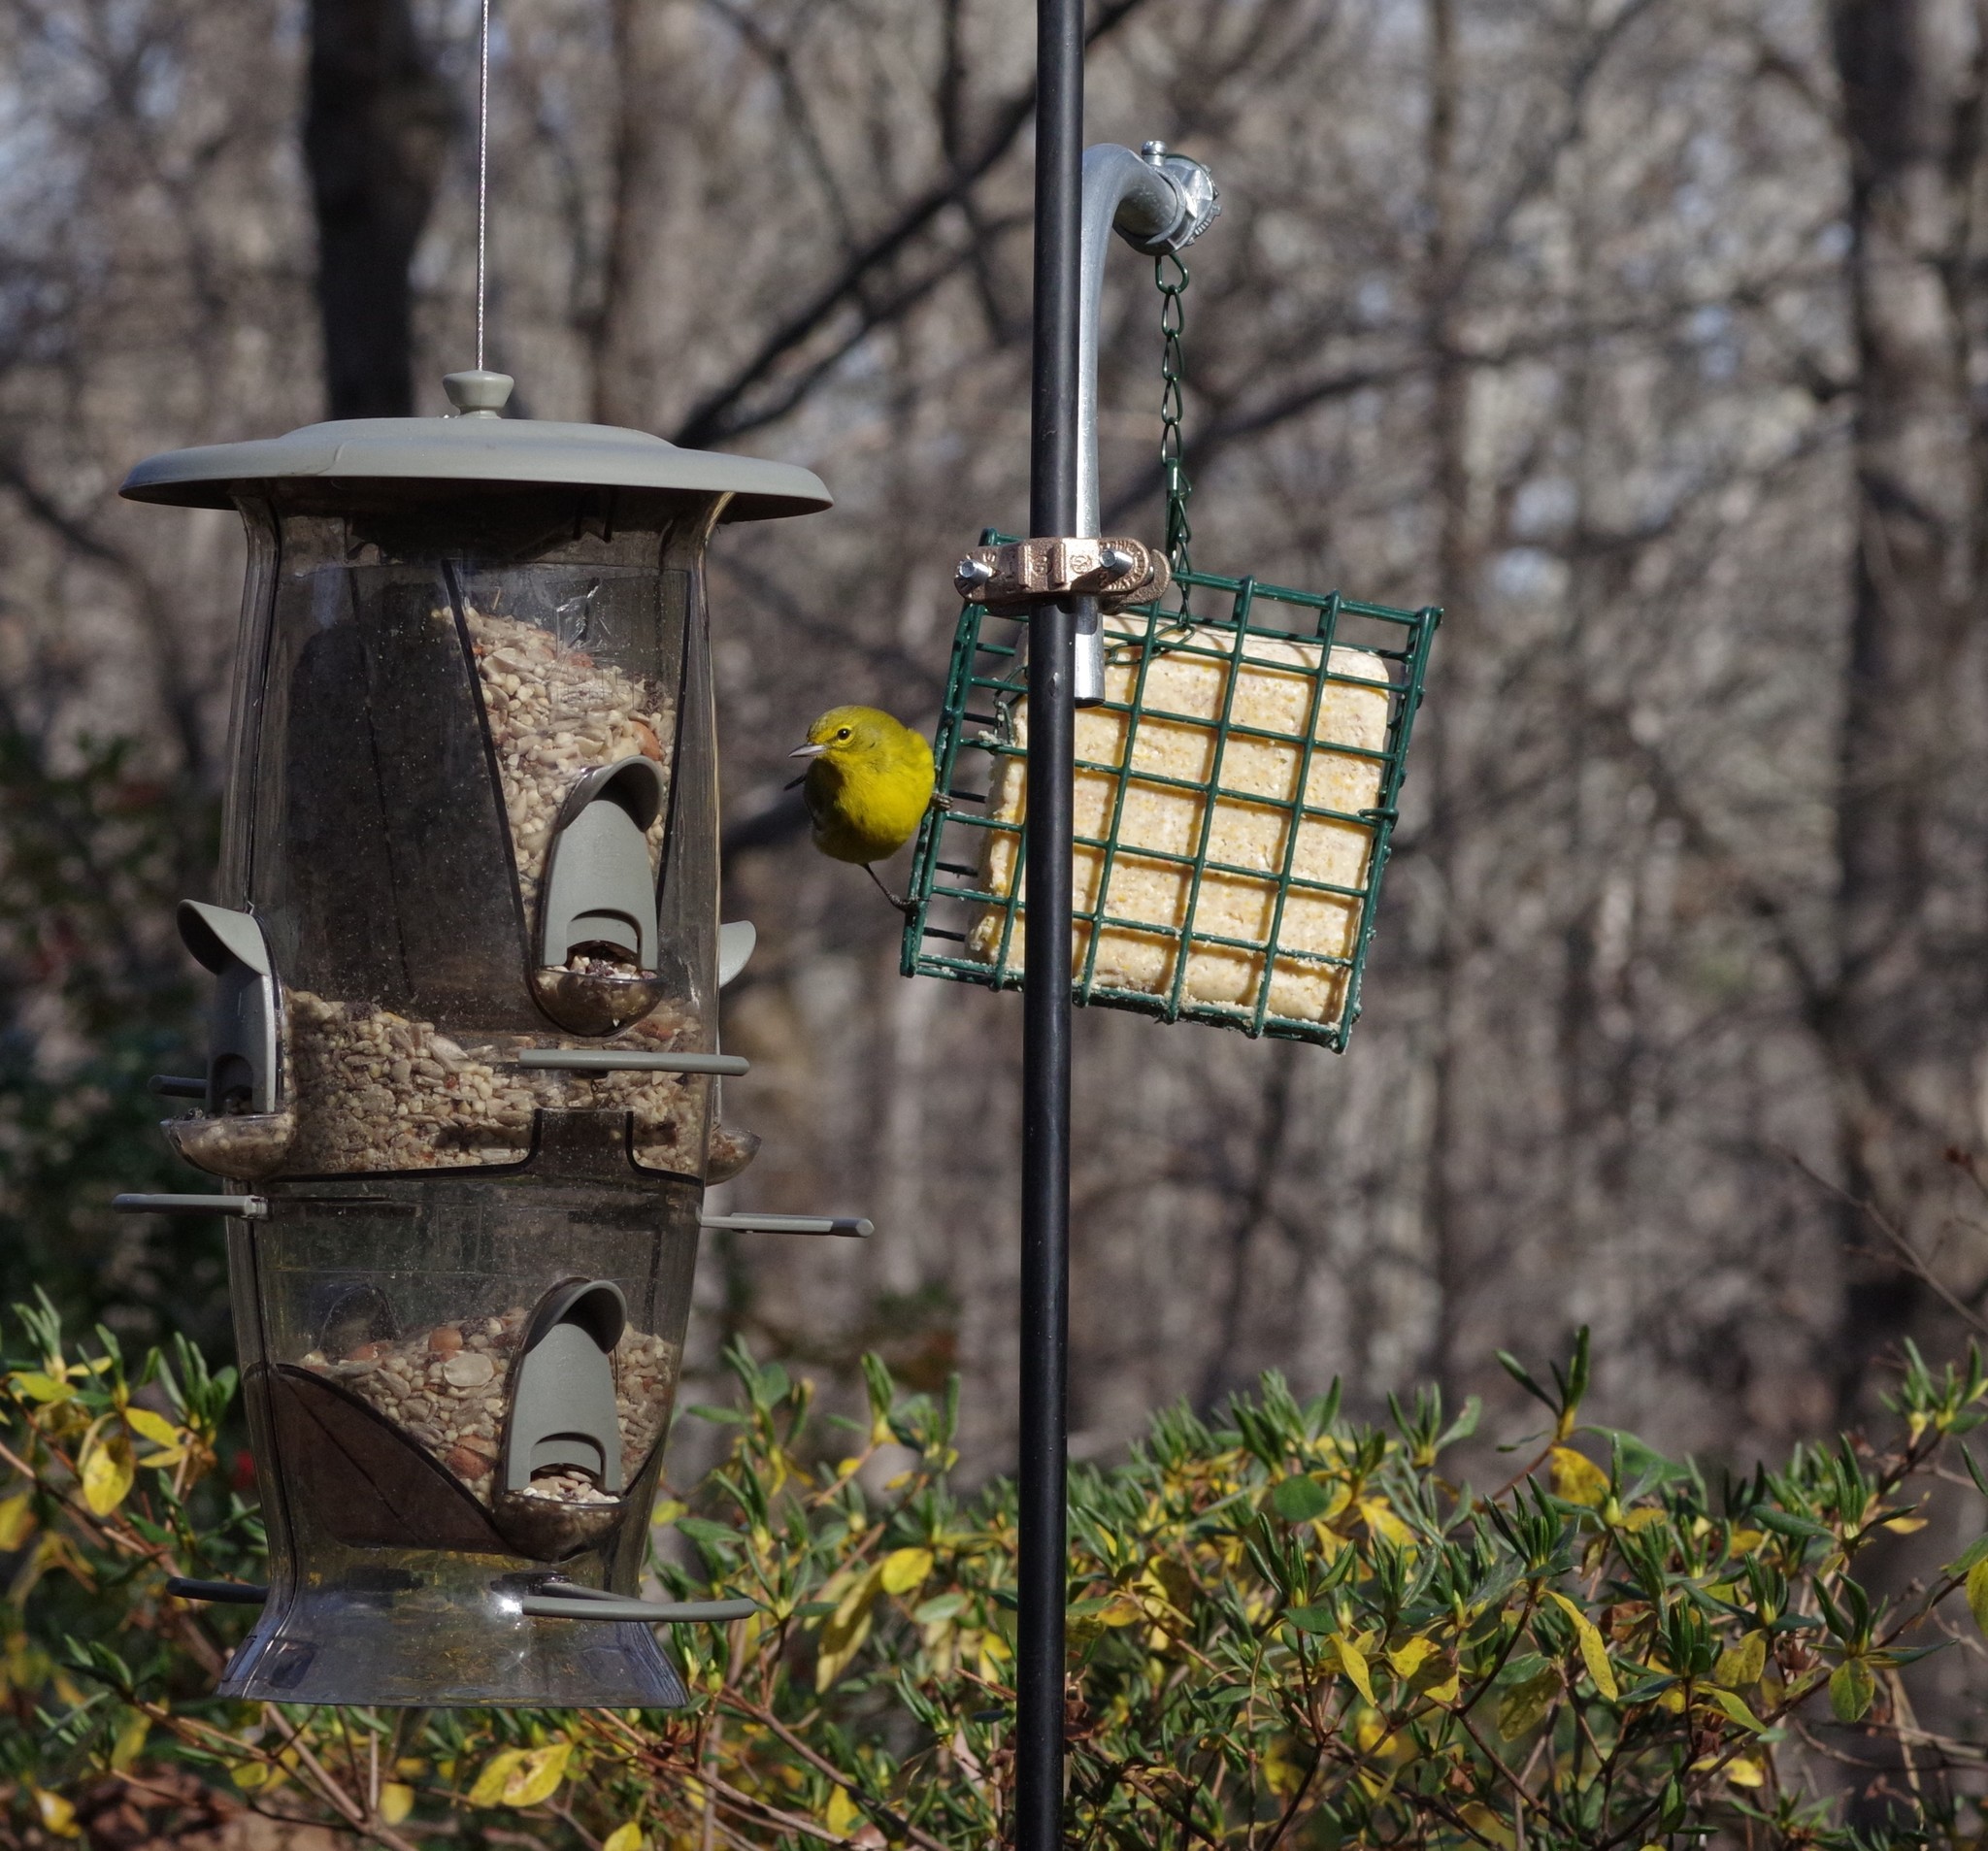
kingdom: Animalia
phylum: Chordata
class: Aves
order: Passeriformes
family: Parulidae
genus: Setophaga
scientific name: Setophaga pinus
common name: Pine warbler
